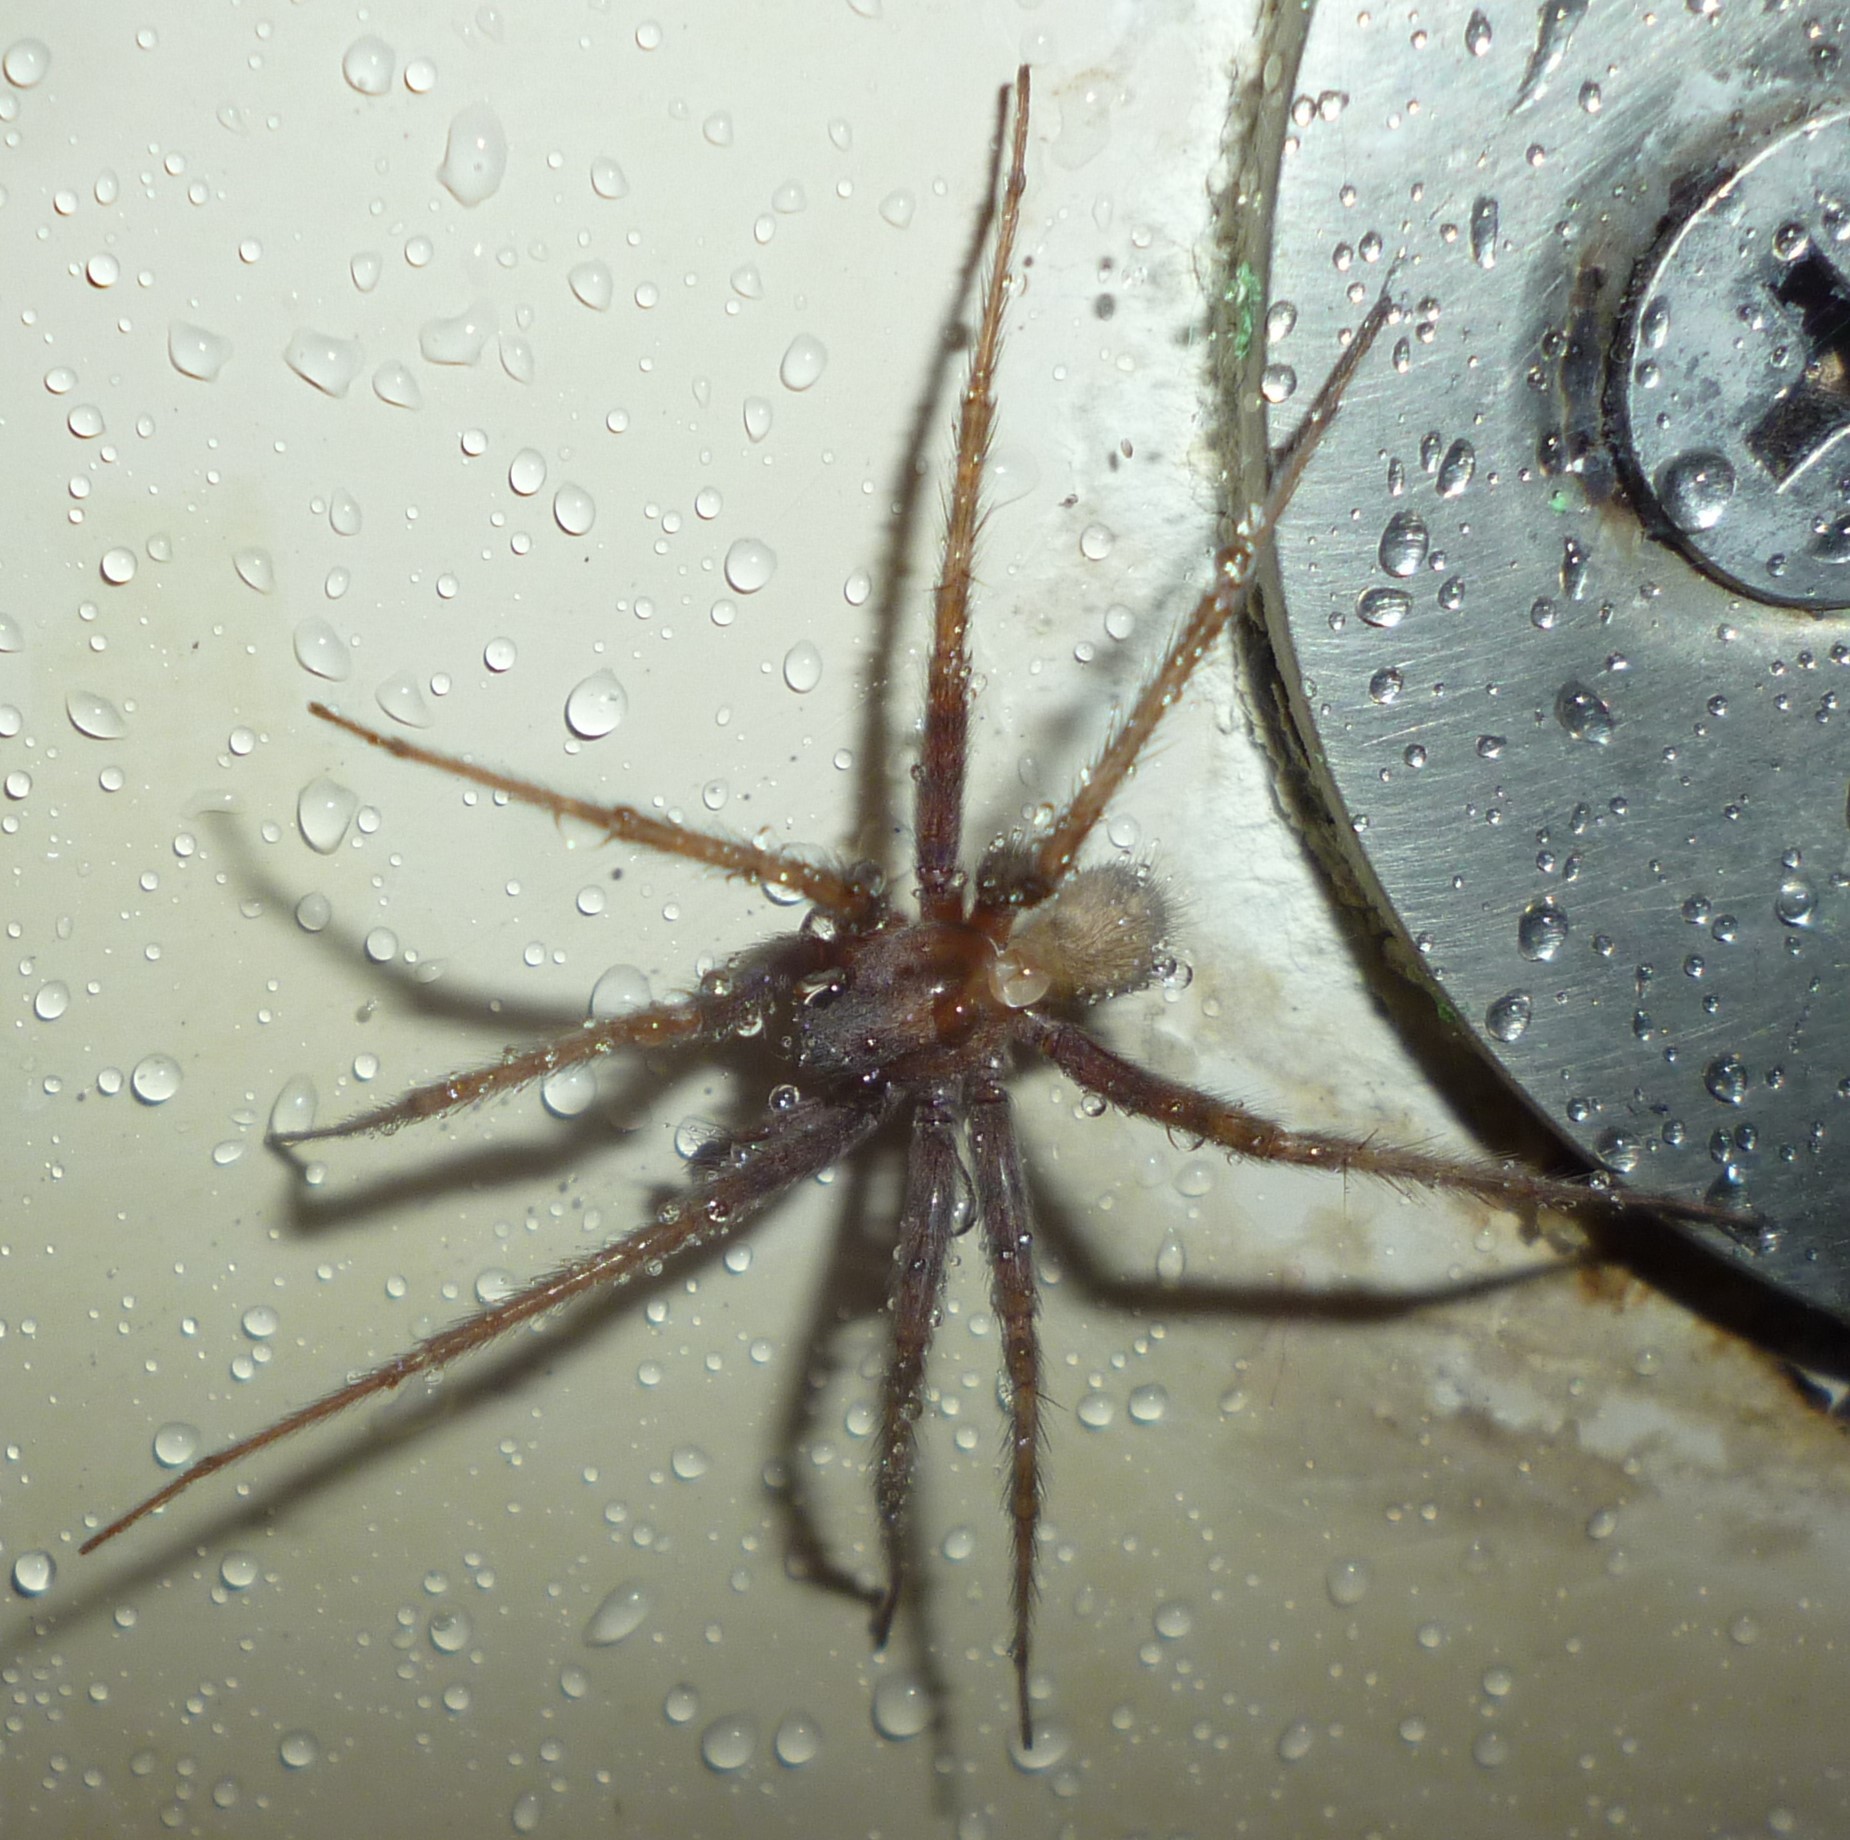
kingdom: Animalia
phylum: Arthropoda
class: Arachnida
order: Araneae
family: Agelenidae
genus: Tegenaria
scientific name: Tegenaria domestica
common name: Barn funnel weaver
